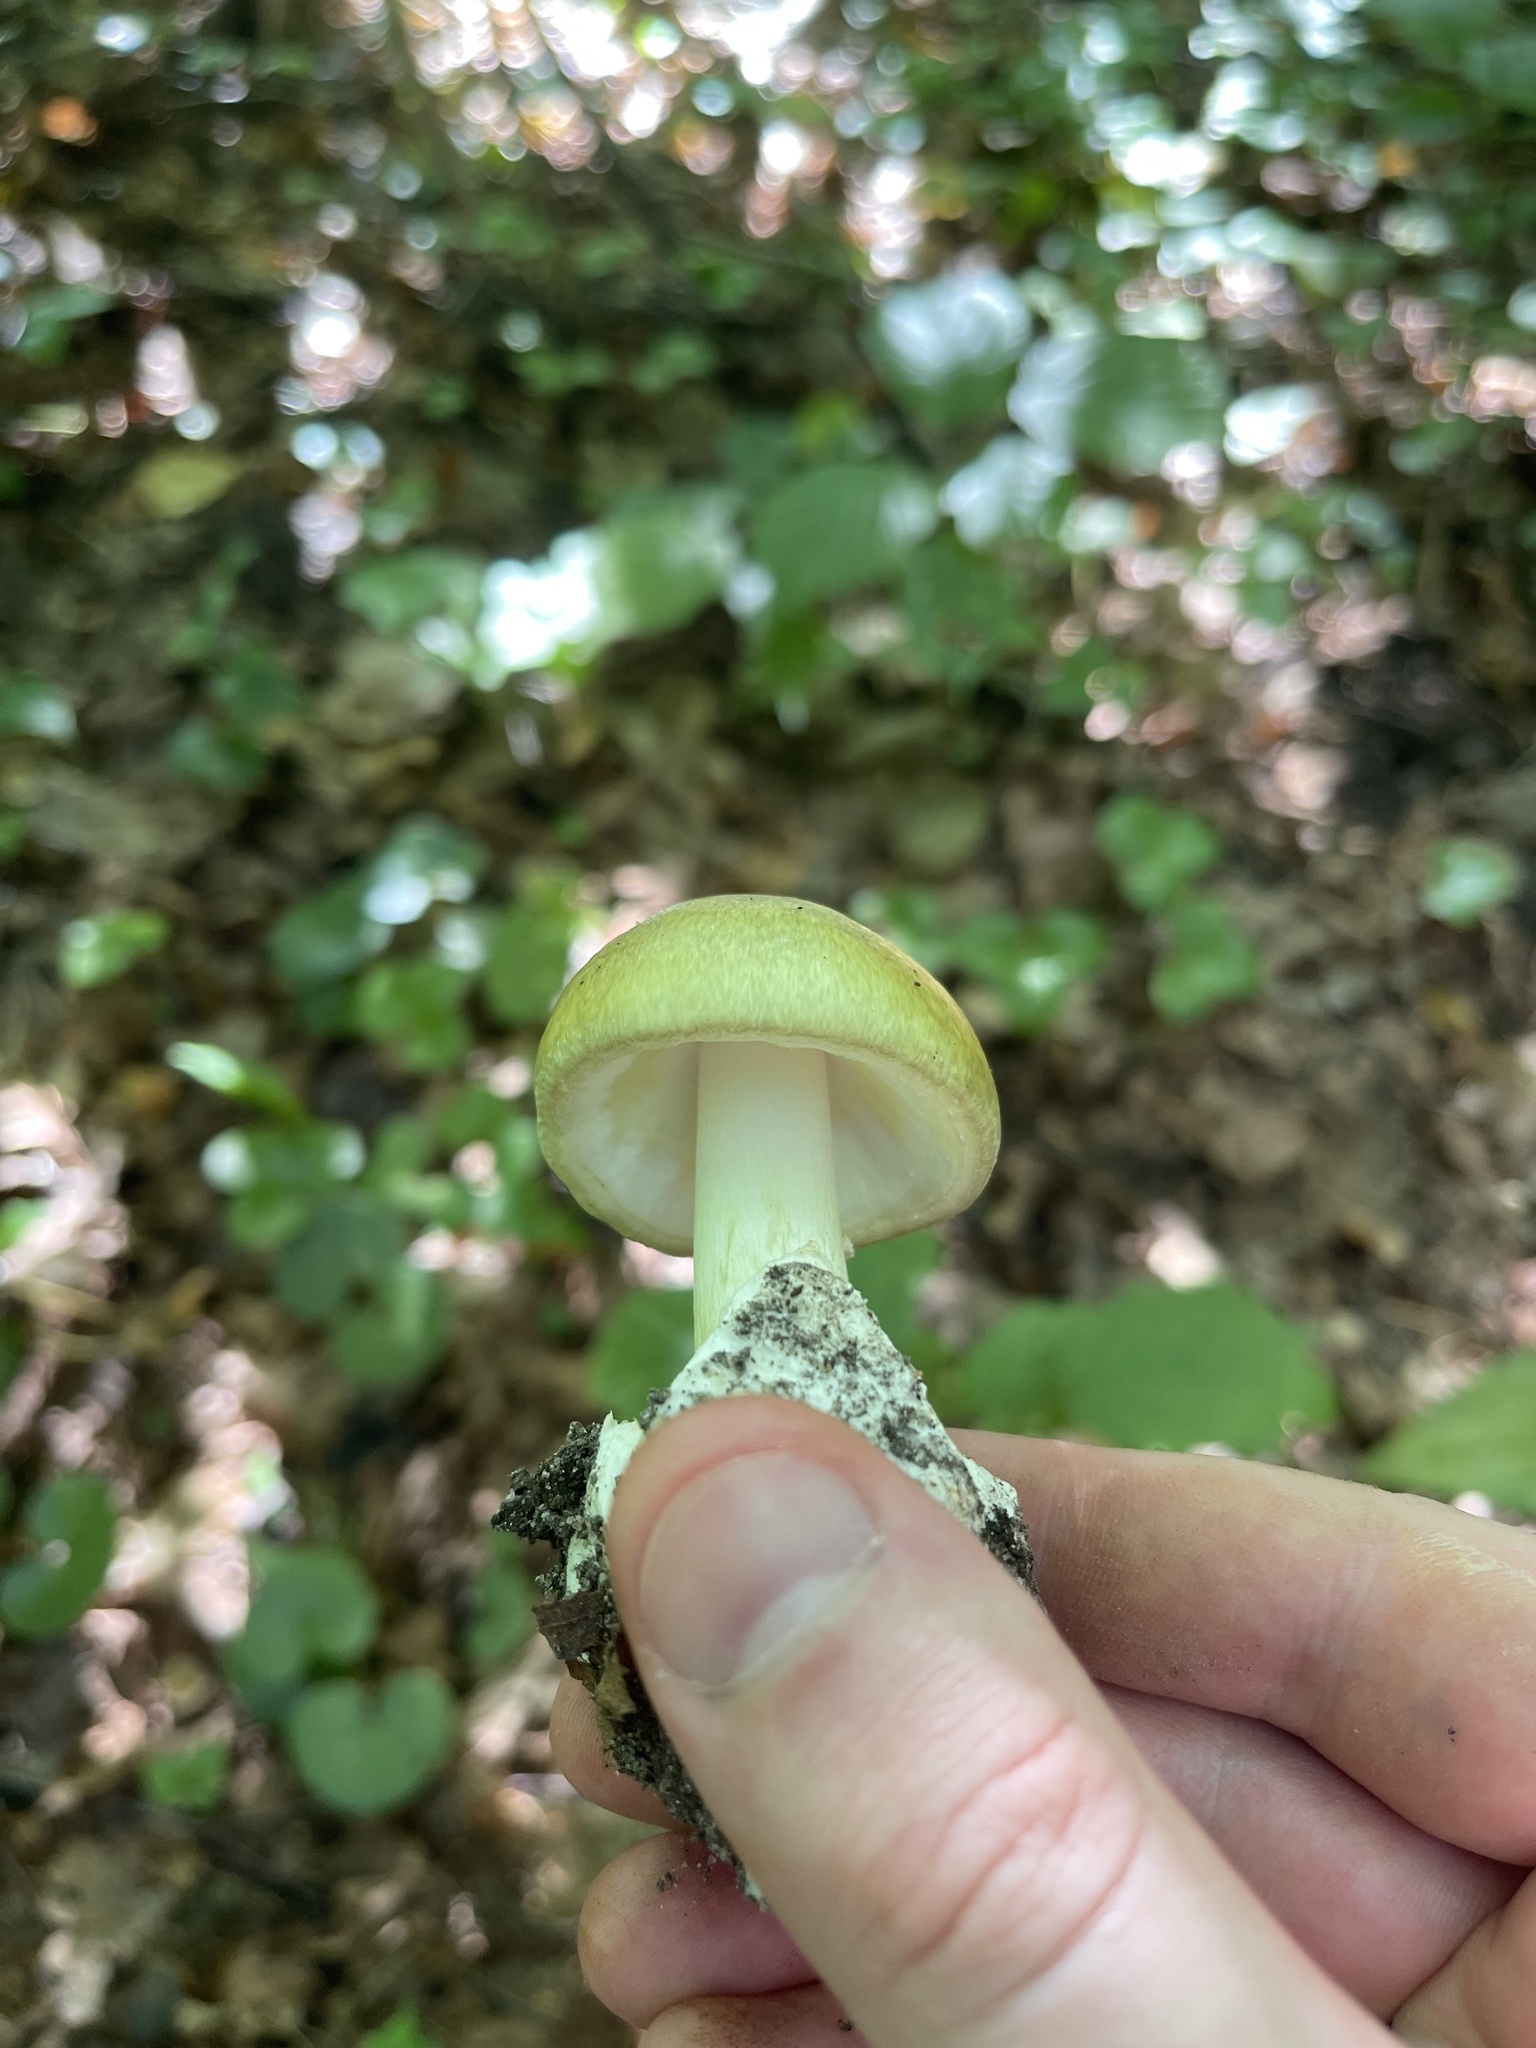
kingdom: Fungi
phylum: Basidiomycota
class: Agaricomycetes
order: Agaricales
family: Amanitaceae
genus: Amanita
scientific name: Amanita phalloides
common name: Death cap
